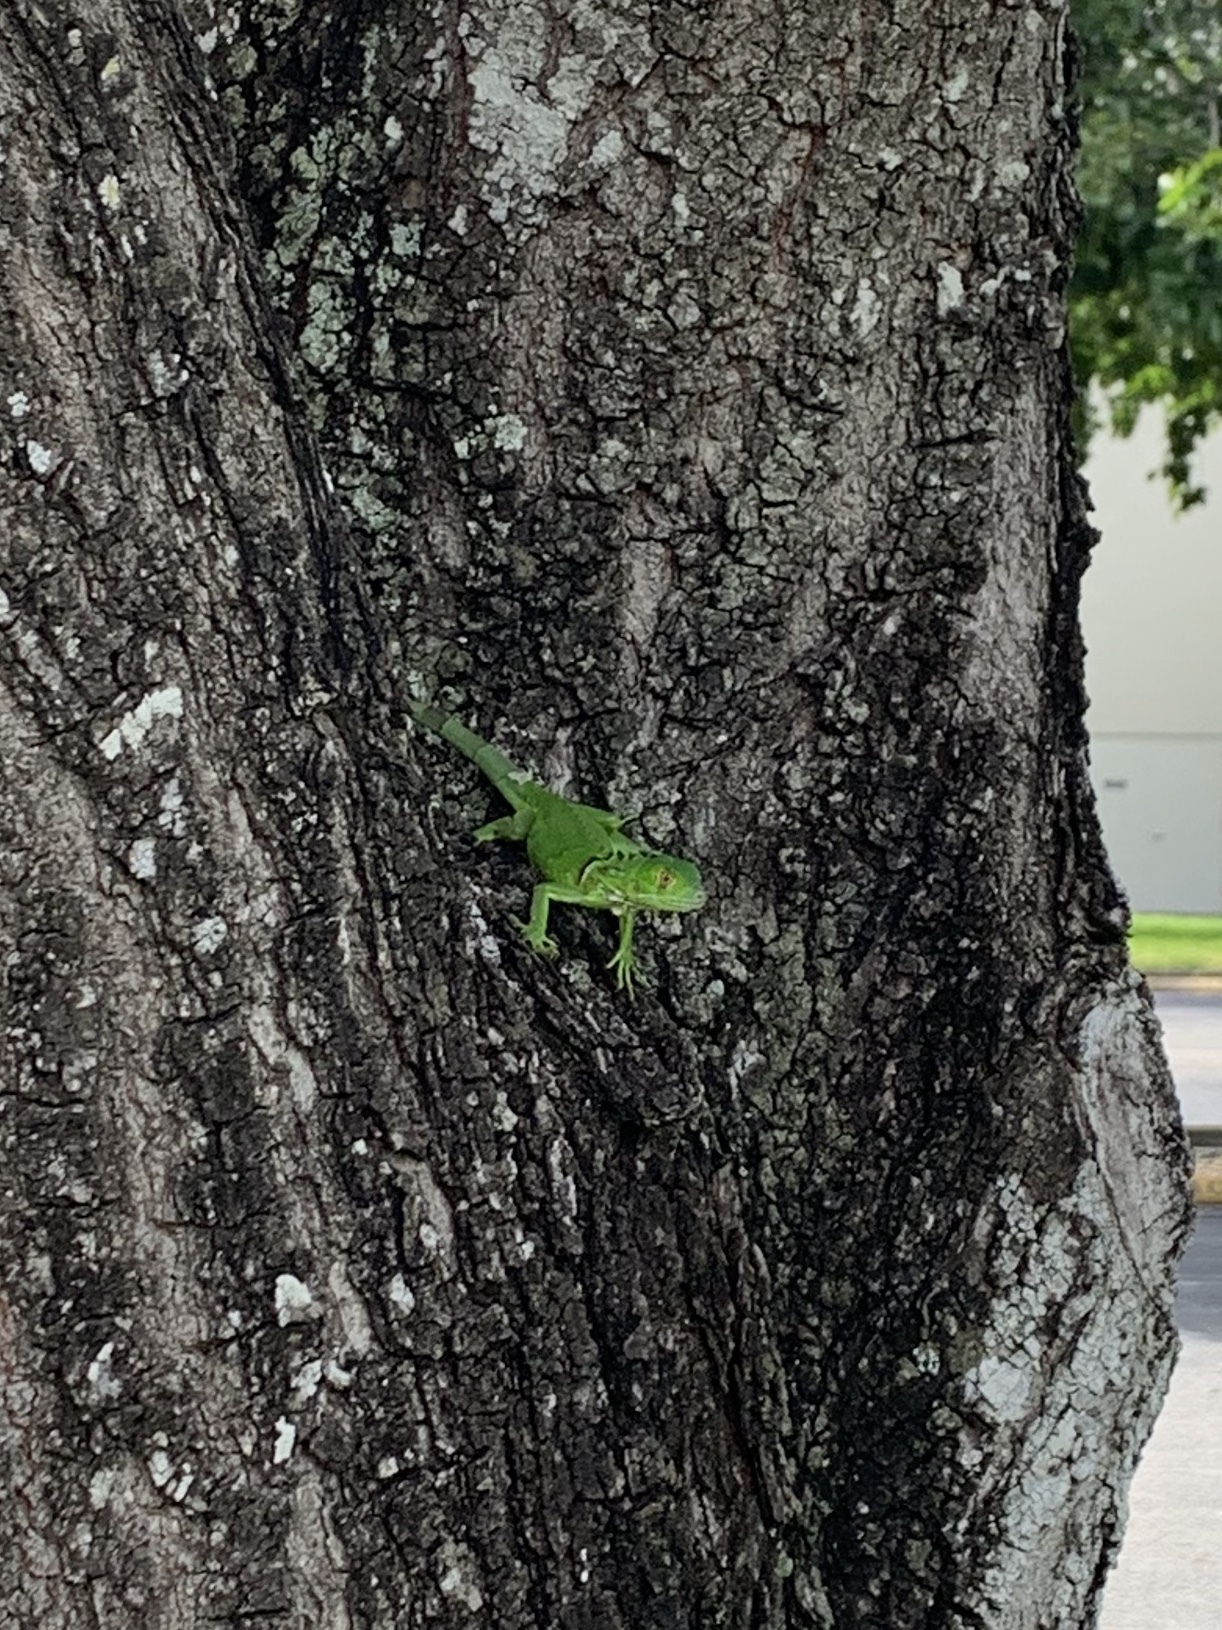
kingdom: Animalia
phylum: Chordata
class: Squamata
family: Iguanidae
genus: Iguana
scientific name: Iguana iguana
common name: Green iguana
